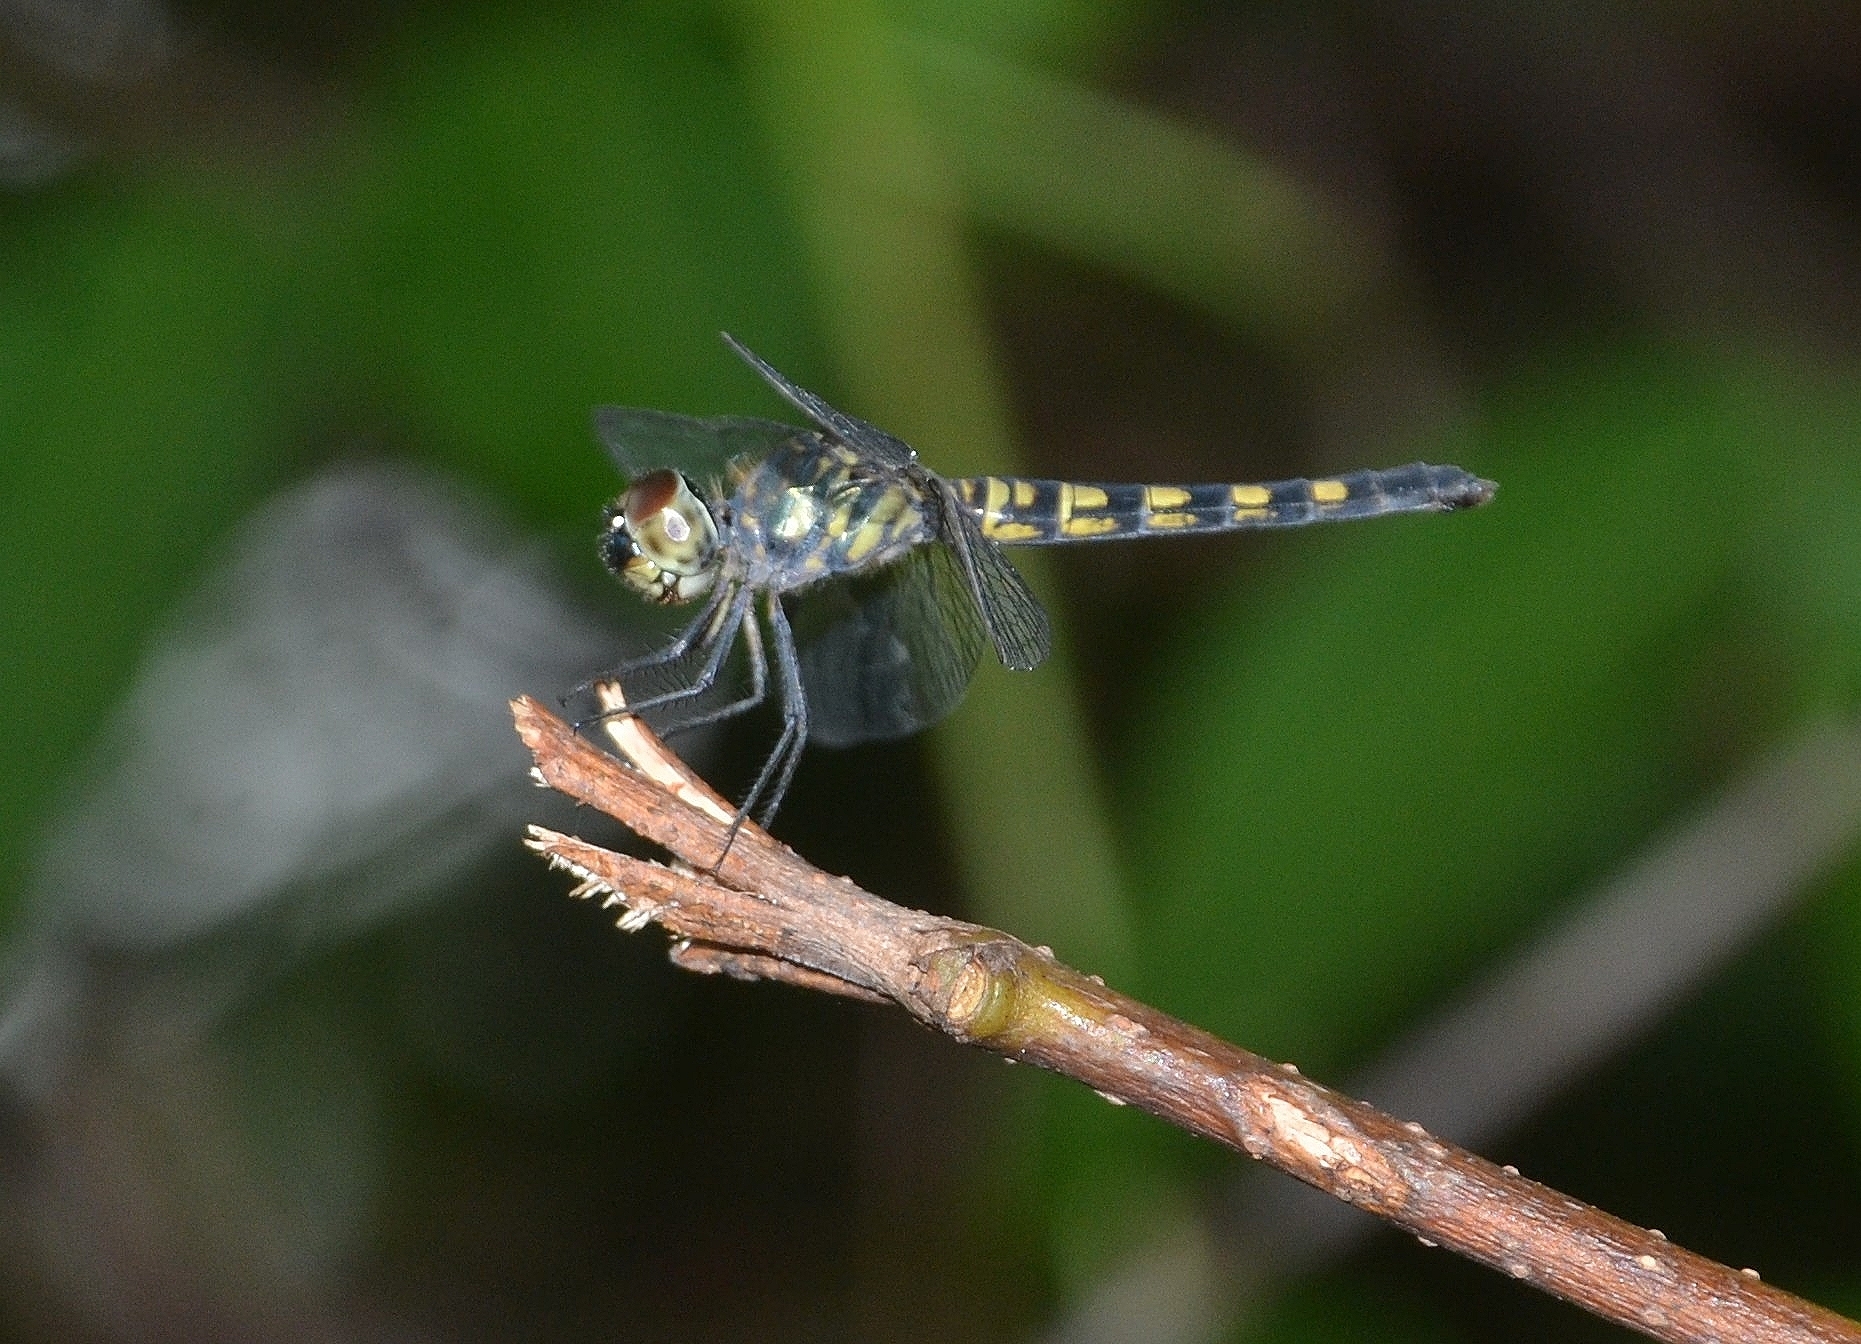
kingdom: Animalia
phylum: Arthropoda
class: Insecta
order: Odonata
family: Libellulidae
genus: Brachydiplax
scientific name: Brachydiplax chalybea
